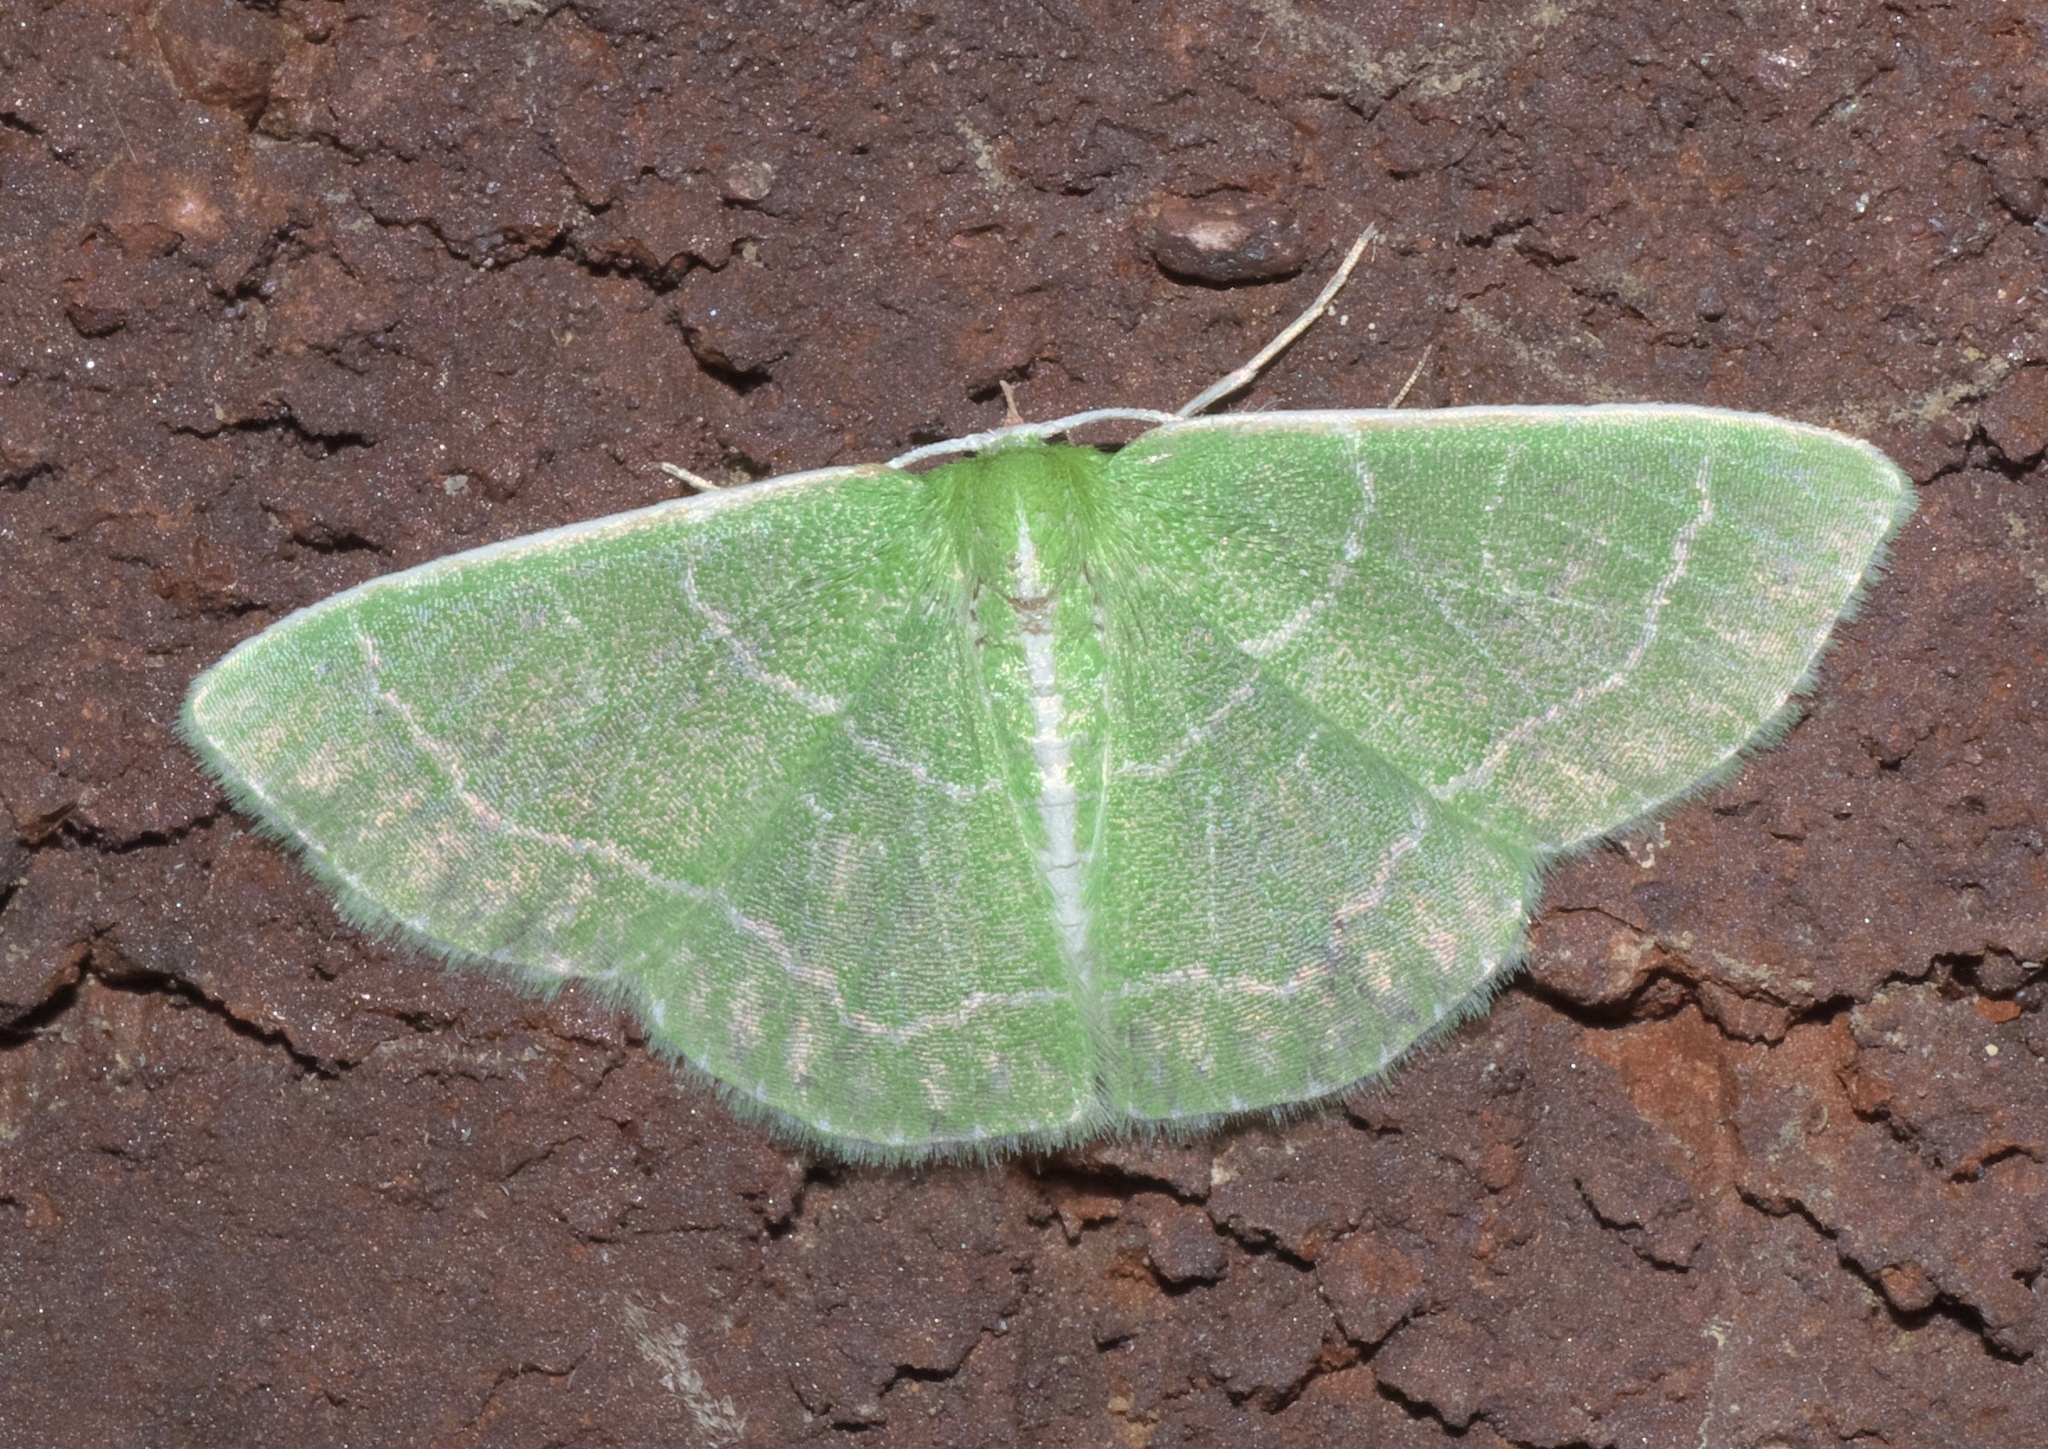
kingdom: Animalia
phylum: Arthropoda
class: Insecta
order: Lepidoptera
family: Geometridae
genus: Synchlora
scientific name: Synchlora aerata
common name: Wavy-lined emerald
